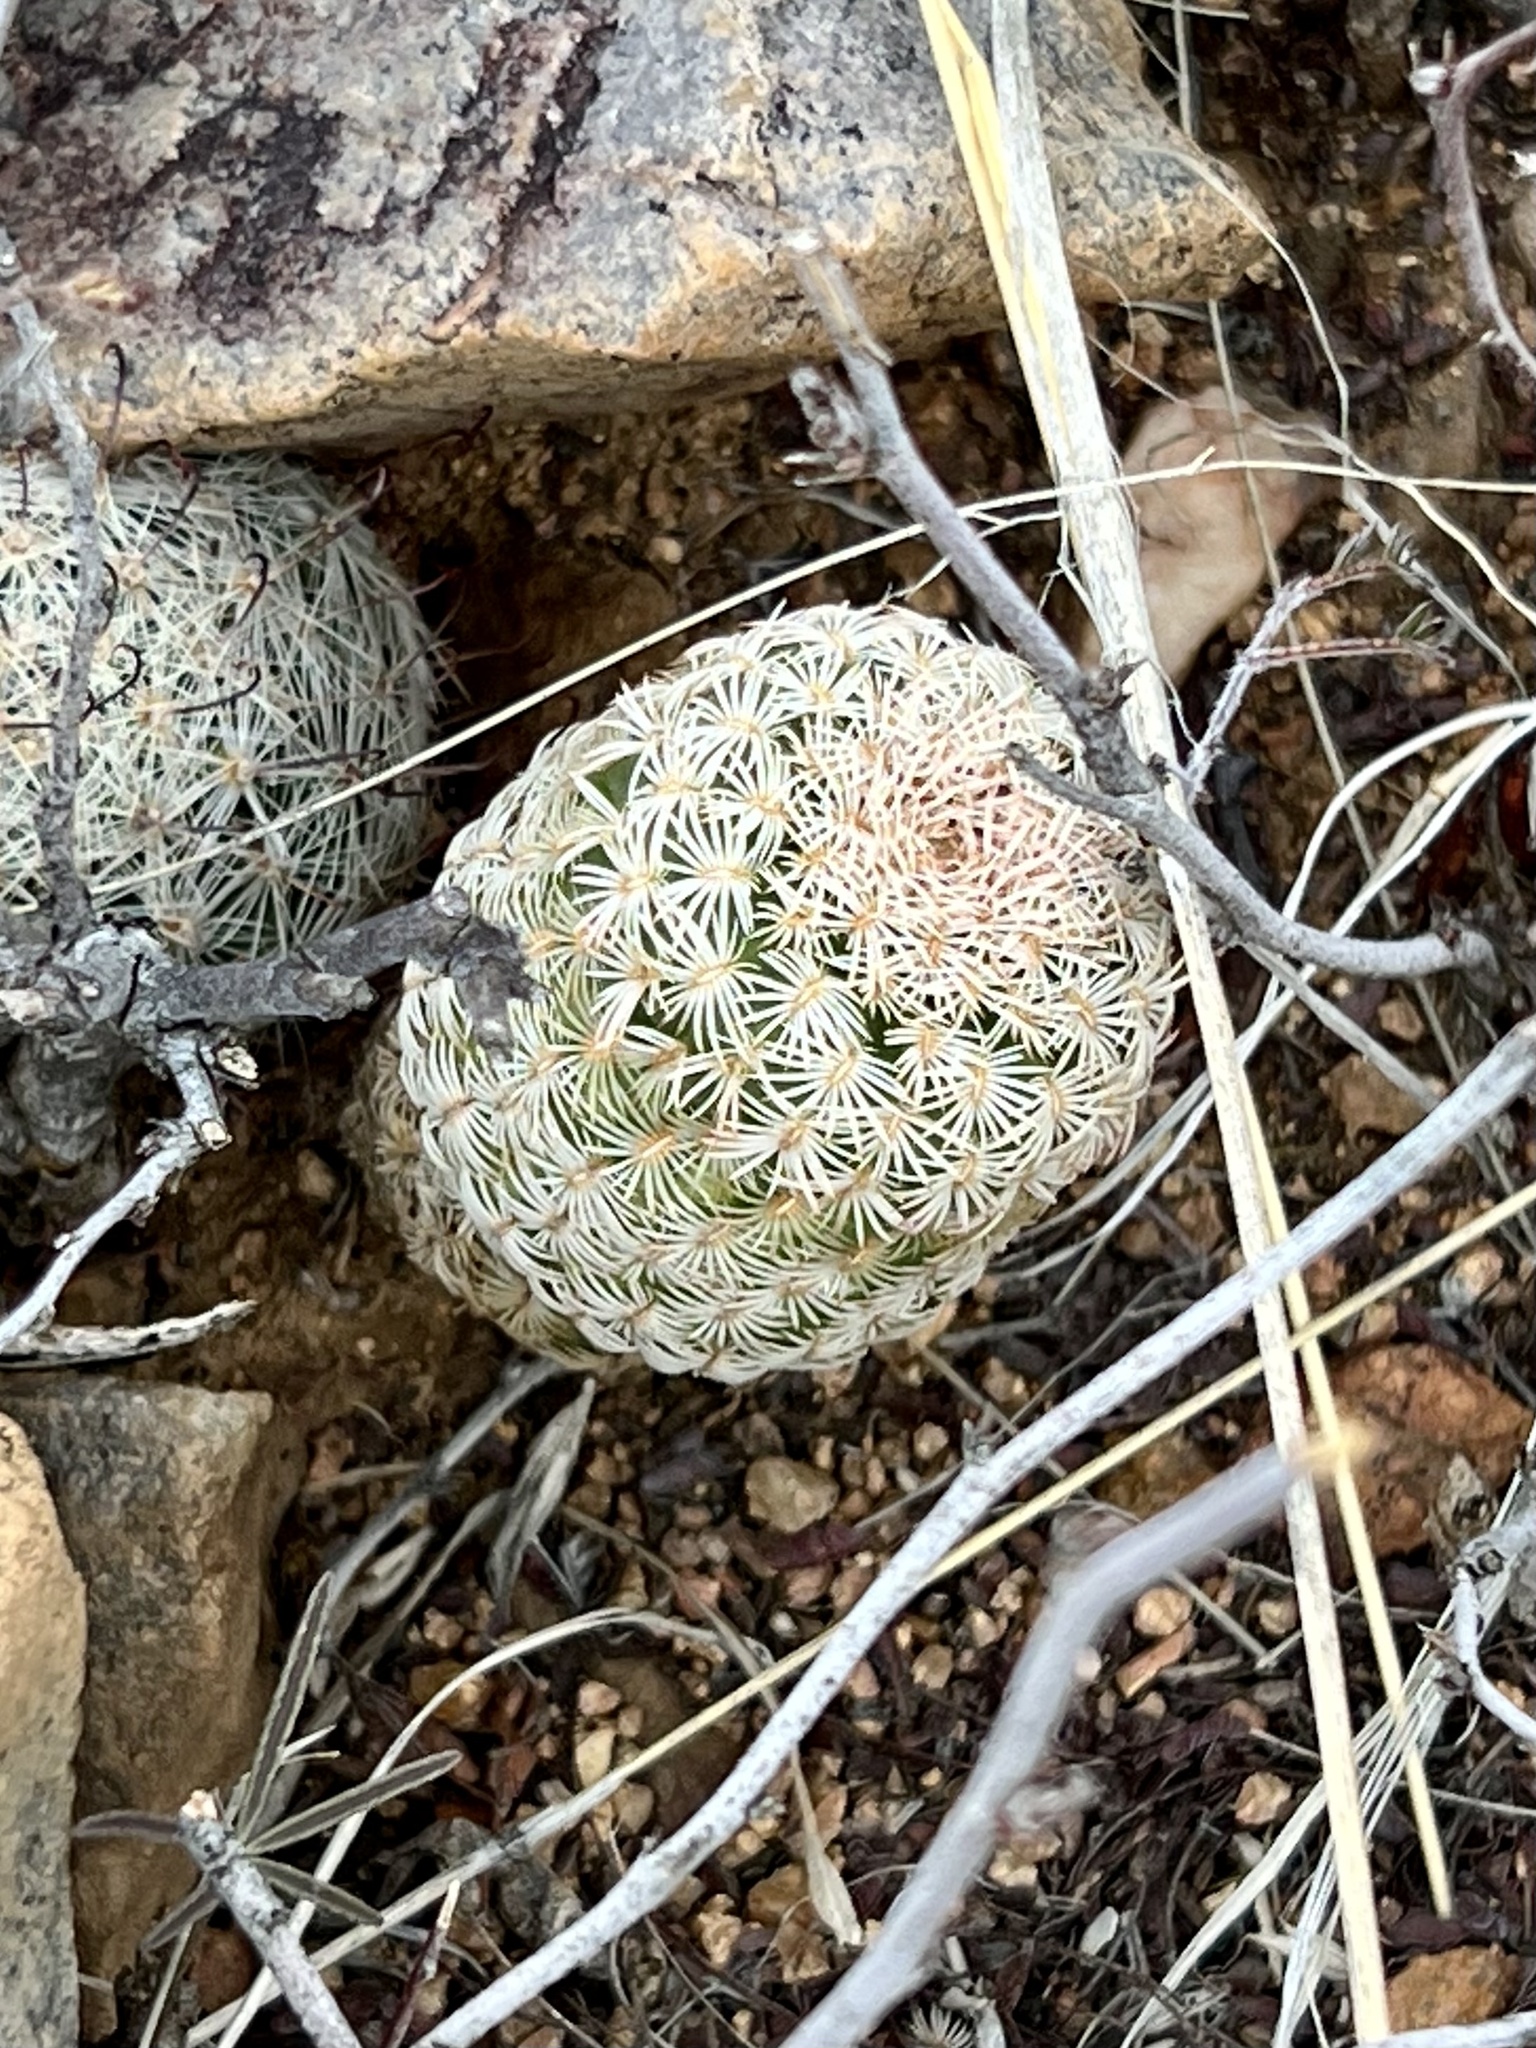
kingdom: Plantae
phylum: Tracheophyta
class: Magnoliopsida
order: Caryophyllales
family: Cactaceae
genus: Echinocereus
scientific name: Echinocereus rigidissimus
